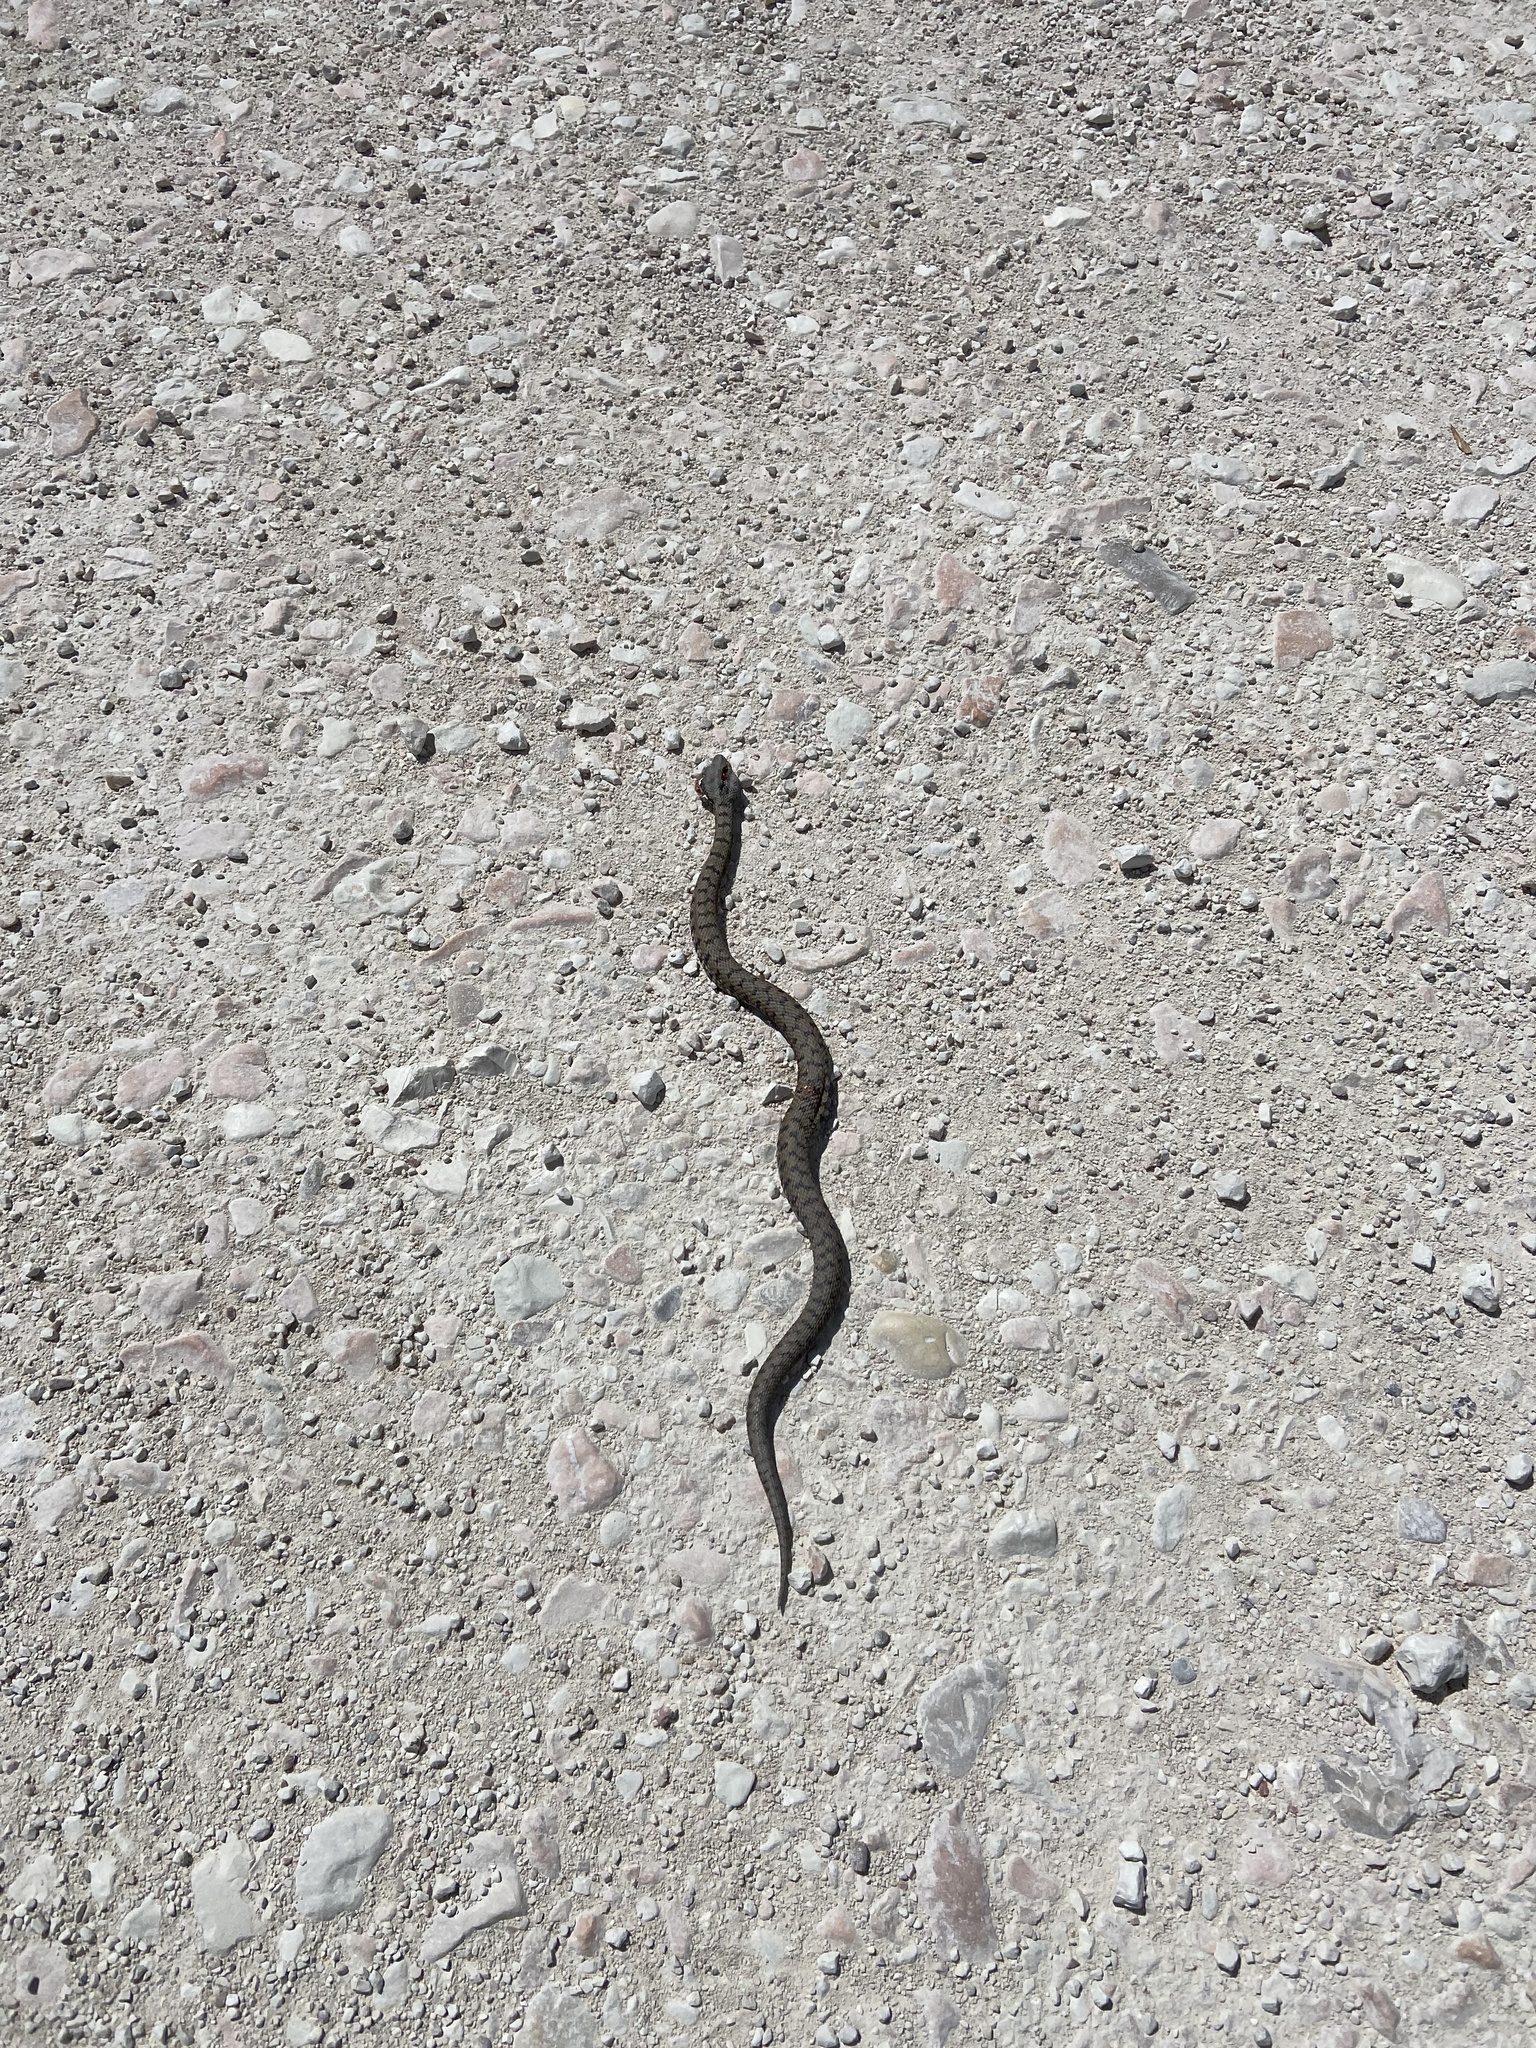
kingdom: Animalia
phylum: Chordata
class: Squamata
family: Viperidae
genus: Vipera
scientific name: Vipera aspis
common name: Asp viper
